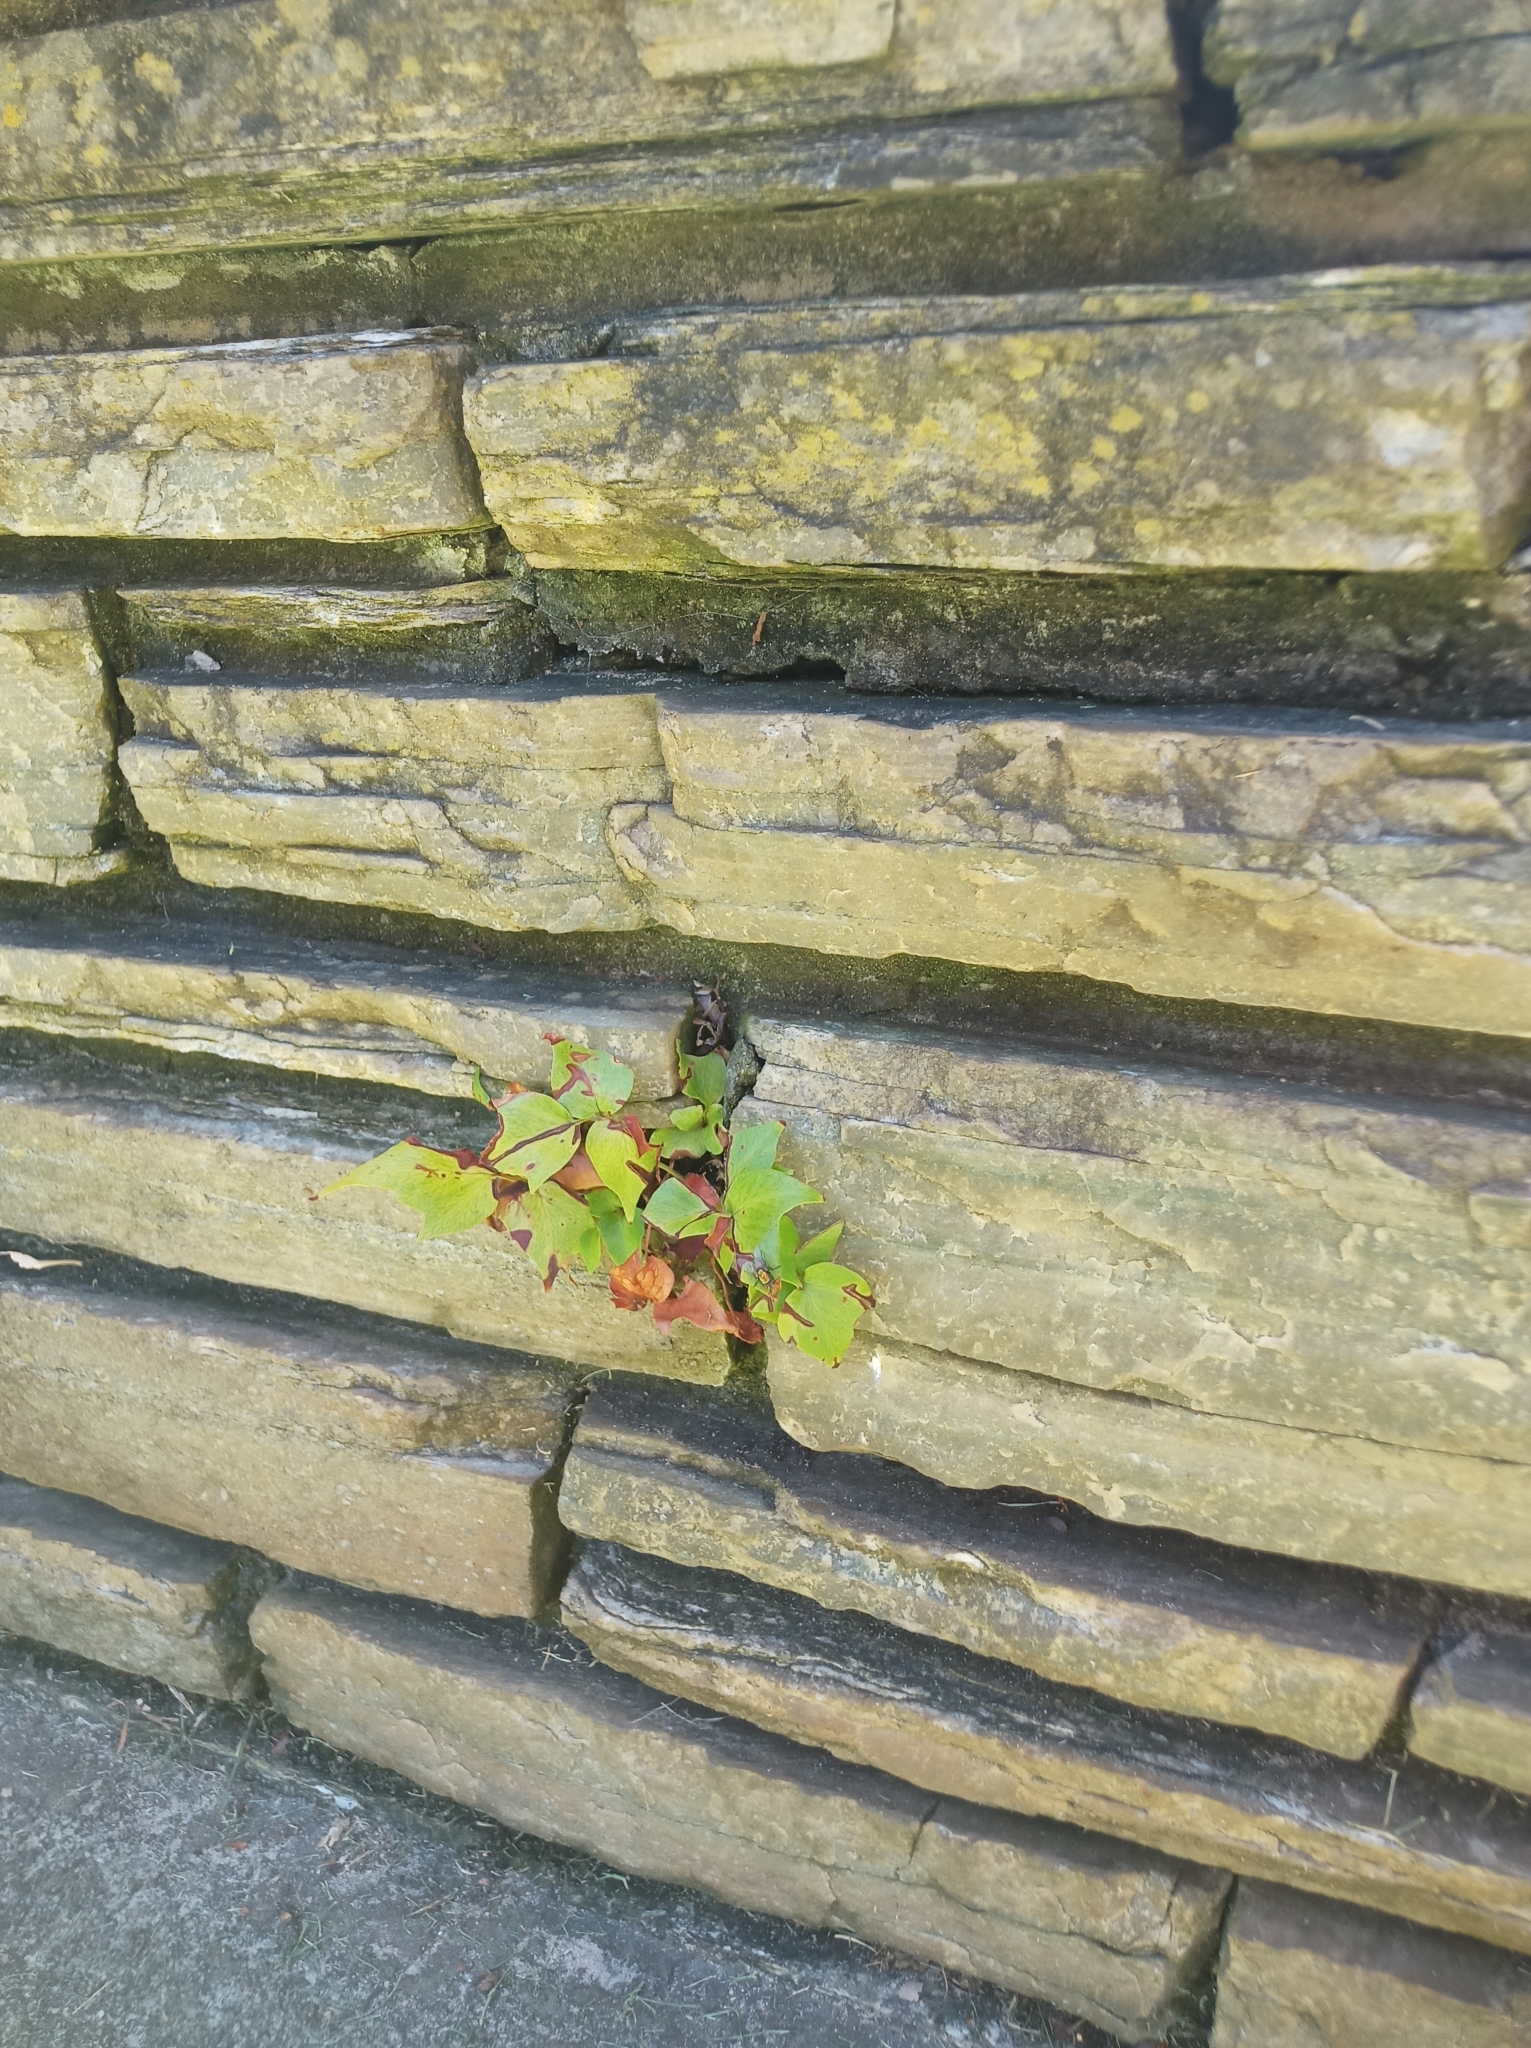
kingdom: Plantae
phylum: Tracheophyta
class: Polypodiopsida
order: Polypodiales
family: Dryopteridaceae
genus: Cyrtomium
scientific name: Cyrtomium falcatum
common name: House holly-fern
